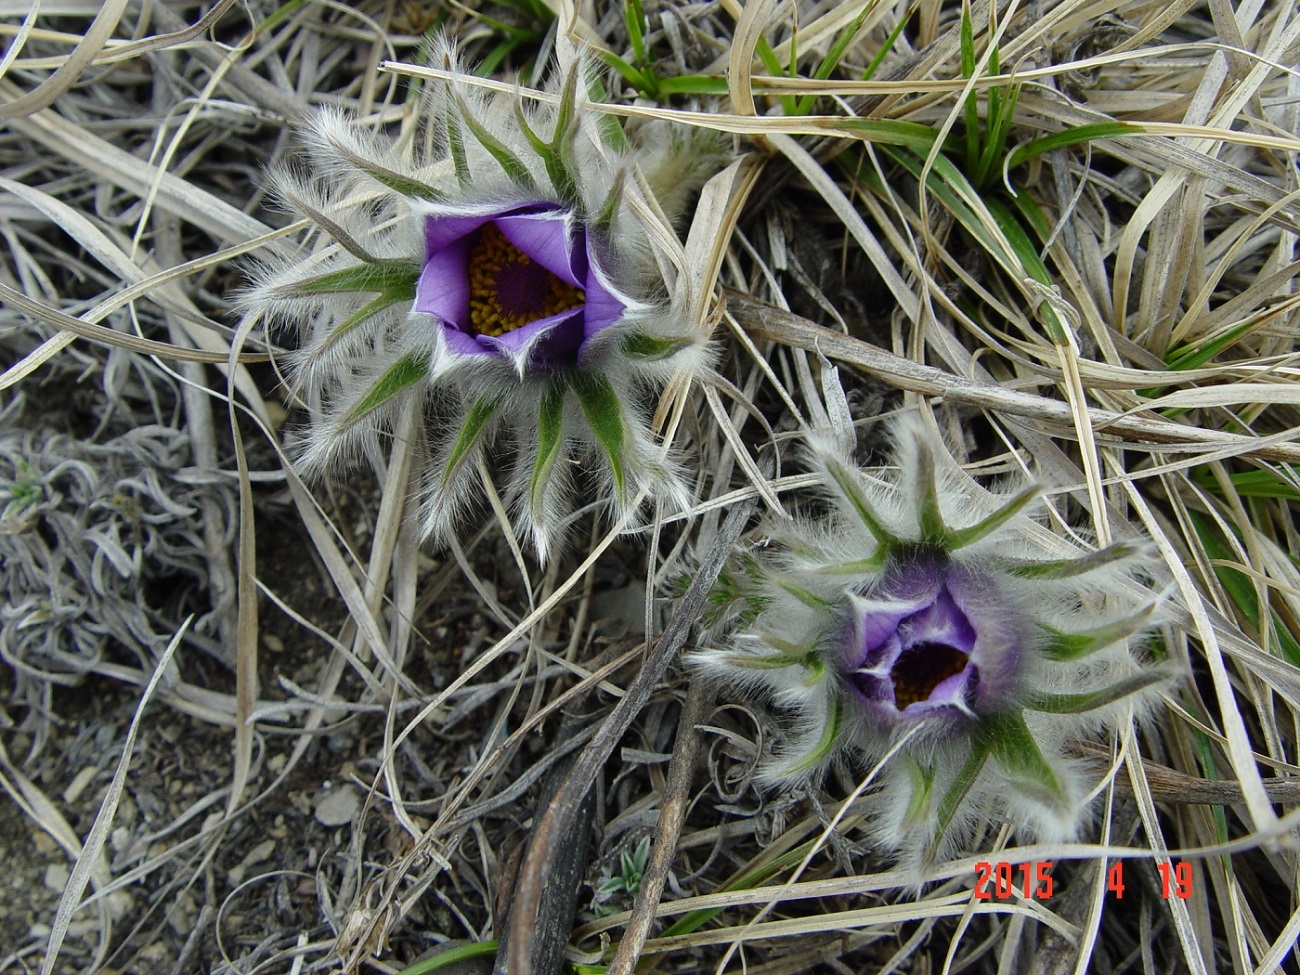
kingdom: Plantae
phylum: Tracheophyta
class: Magnoliopsida
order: Ranunculales
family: Ranunculaceae
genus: Pulsatilla
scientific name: Pulsatilla turczaninovii
